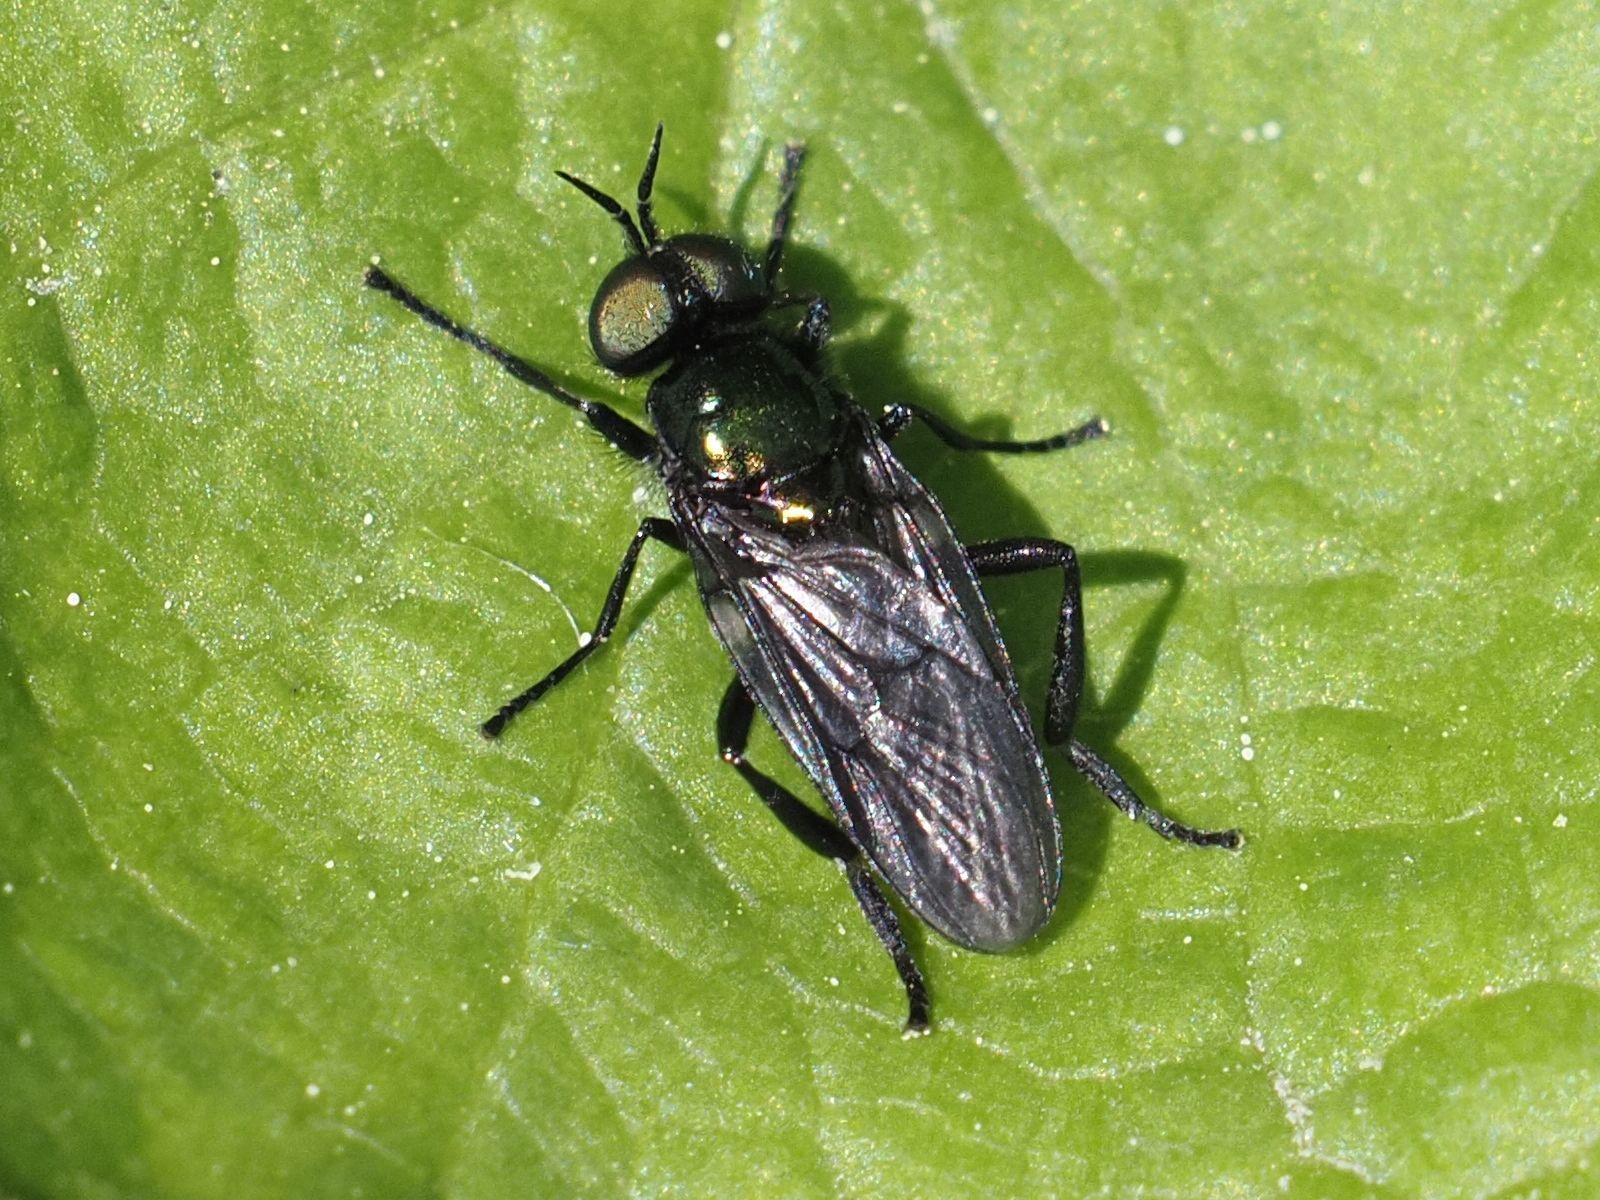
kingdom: Animalia
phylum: Arthropoda
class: Insecta
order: Diptera
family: Stratiomyidae
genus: Actina
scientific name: Actina chalybea
